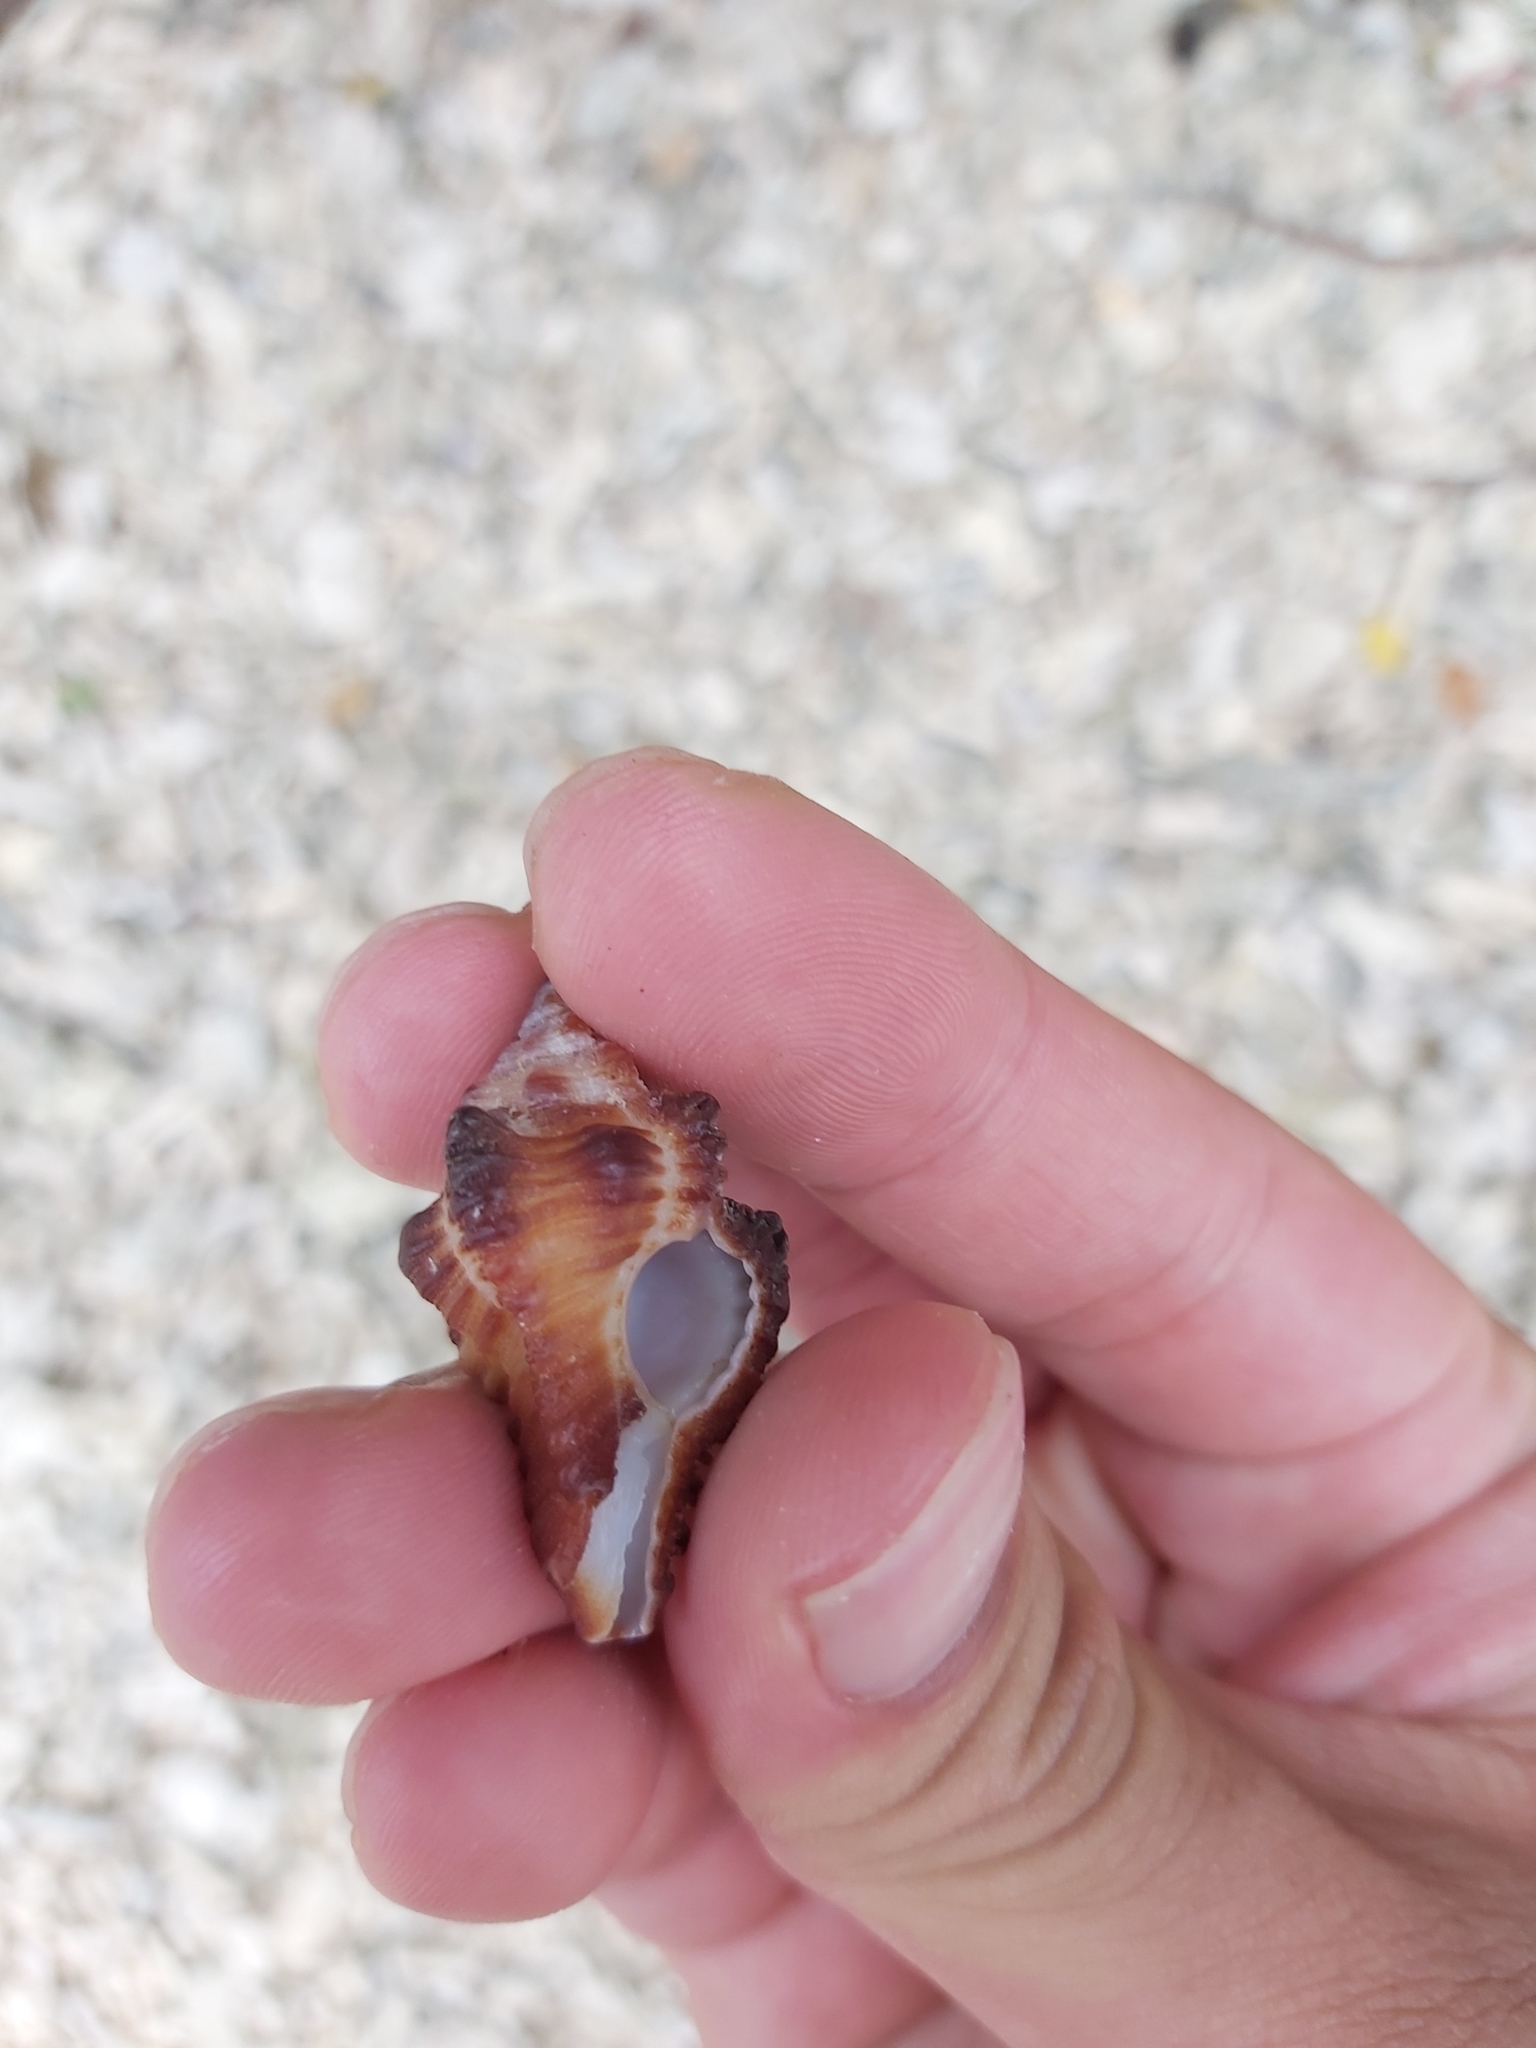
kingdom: Animalia
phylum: Mollusca
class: Gastropoda
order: Neogastropoda
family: Muricidae
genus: Chicoreus
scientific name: Chicoreus brunneus
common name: Adusta murex
